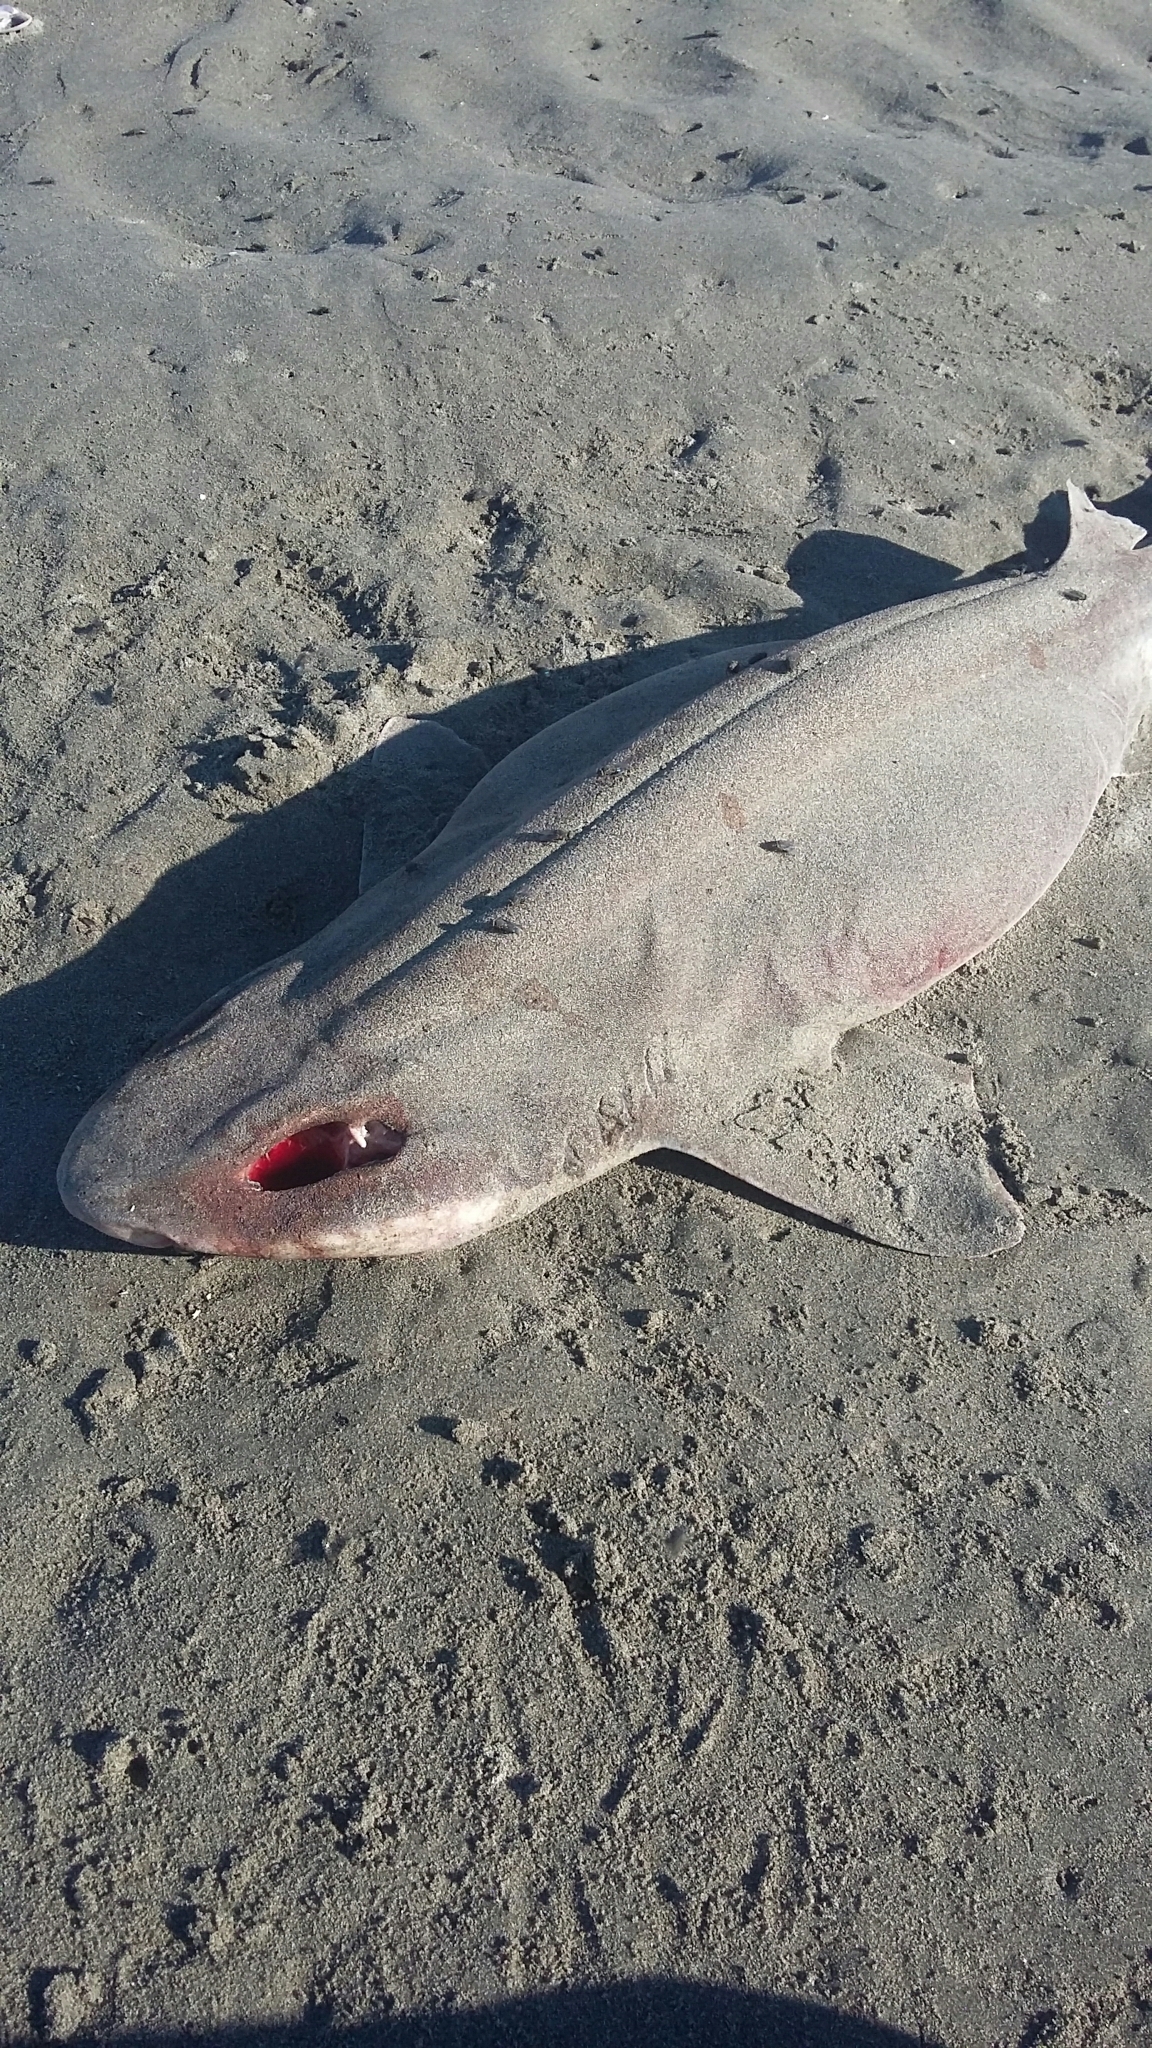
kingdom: Animalia
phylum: Chordata
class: Elasmobranchii
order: Carcharhiniformes
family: Scyliorhinidae
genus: Cephaloscyllium
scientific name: Cephaloscyllium isabellum
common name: Carpet shark
